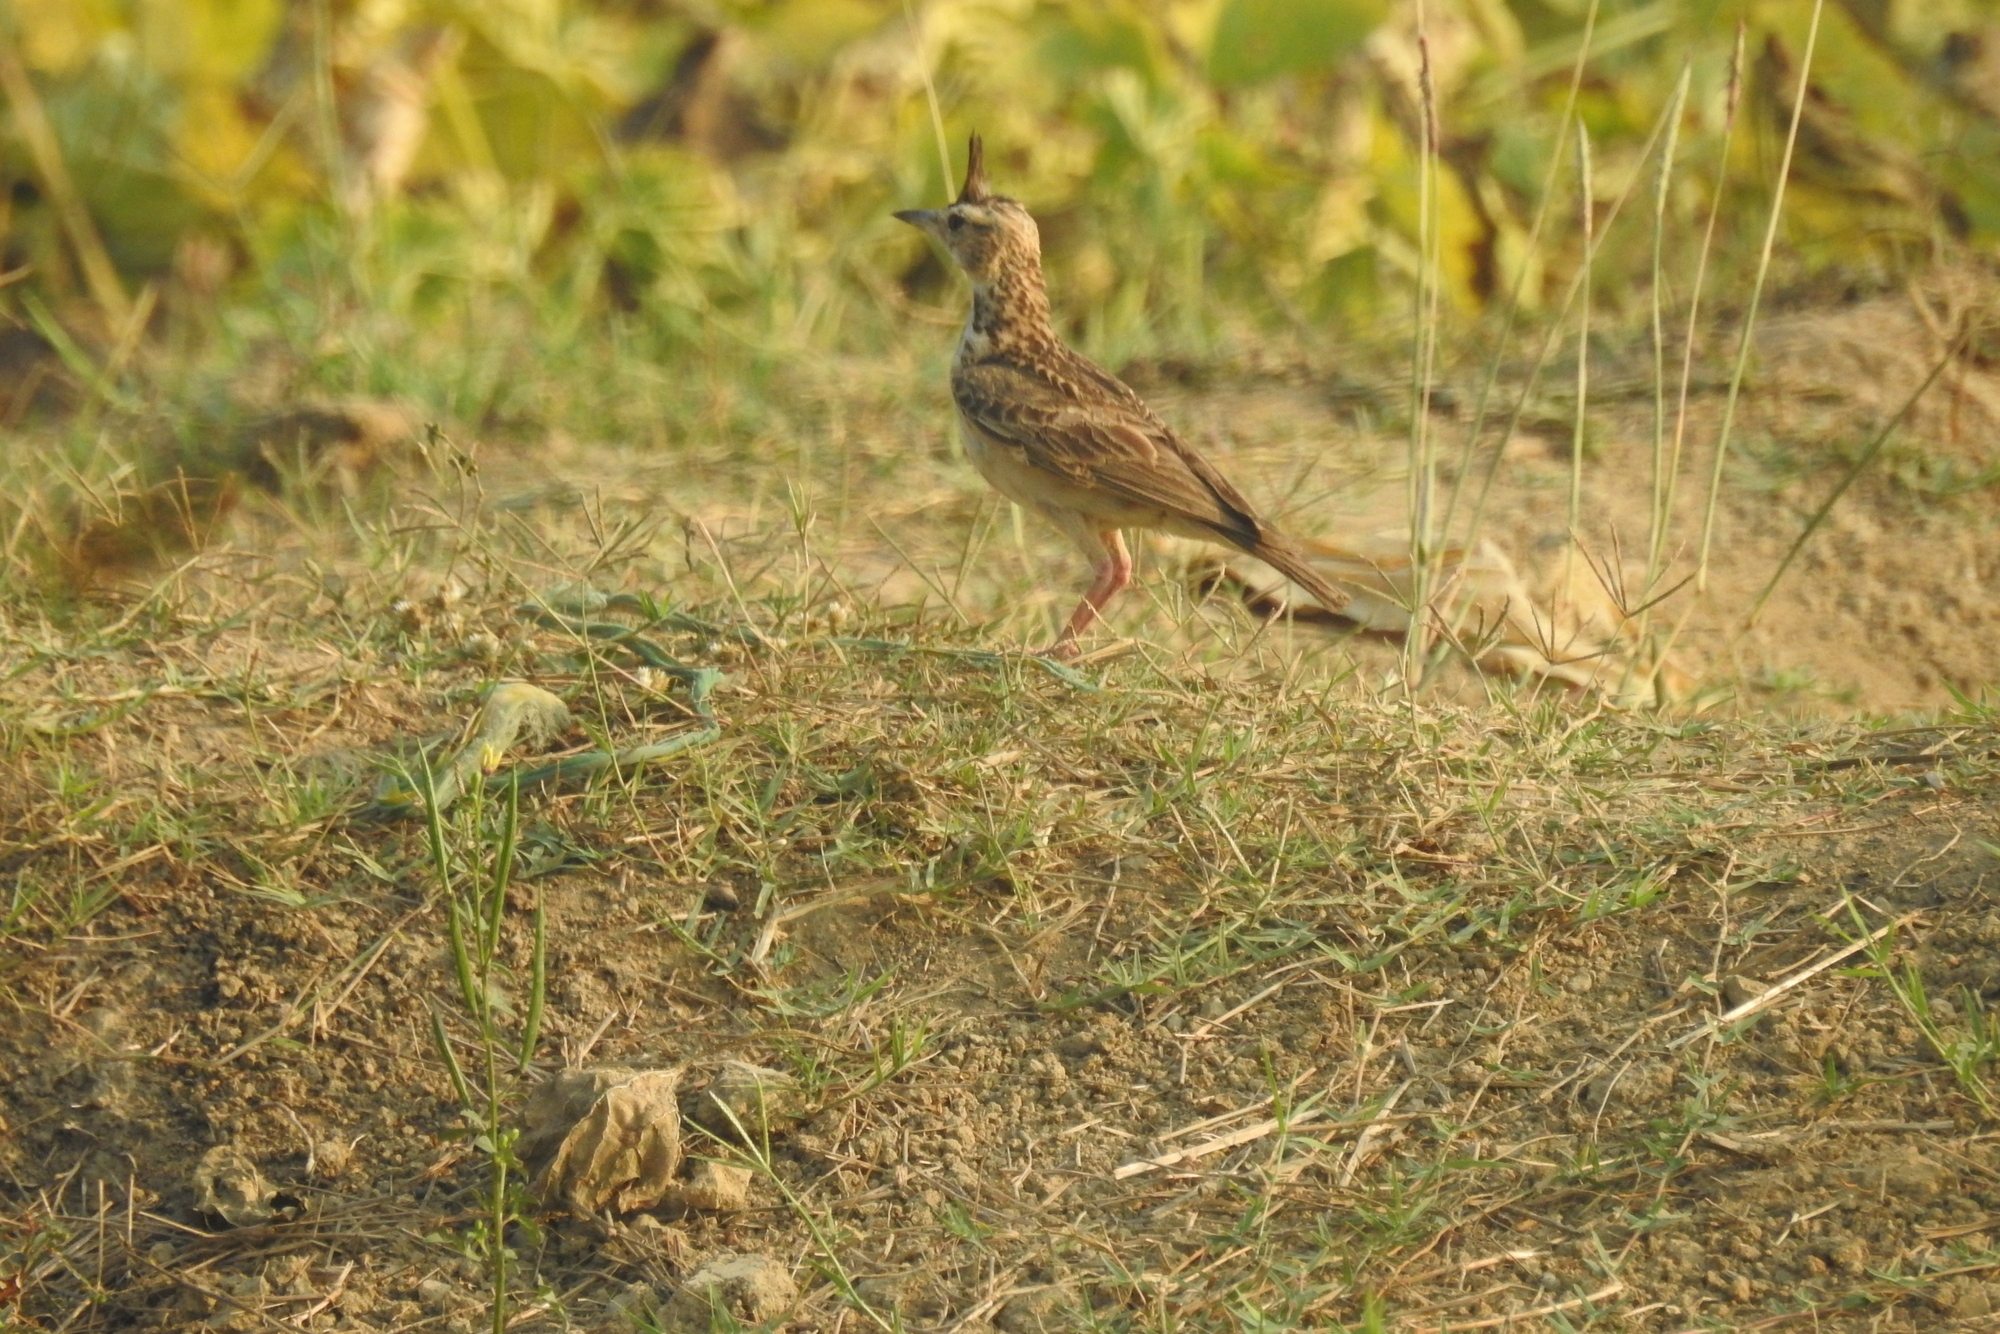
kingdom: Animalia
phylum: Chordata
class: Aves
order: Passeriformes
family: Alaudidae
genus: Galerida
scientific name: Galerida malabarica
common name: Malabar lark
